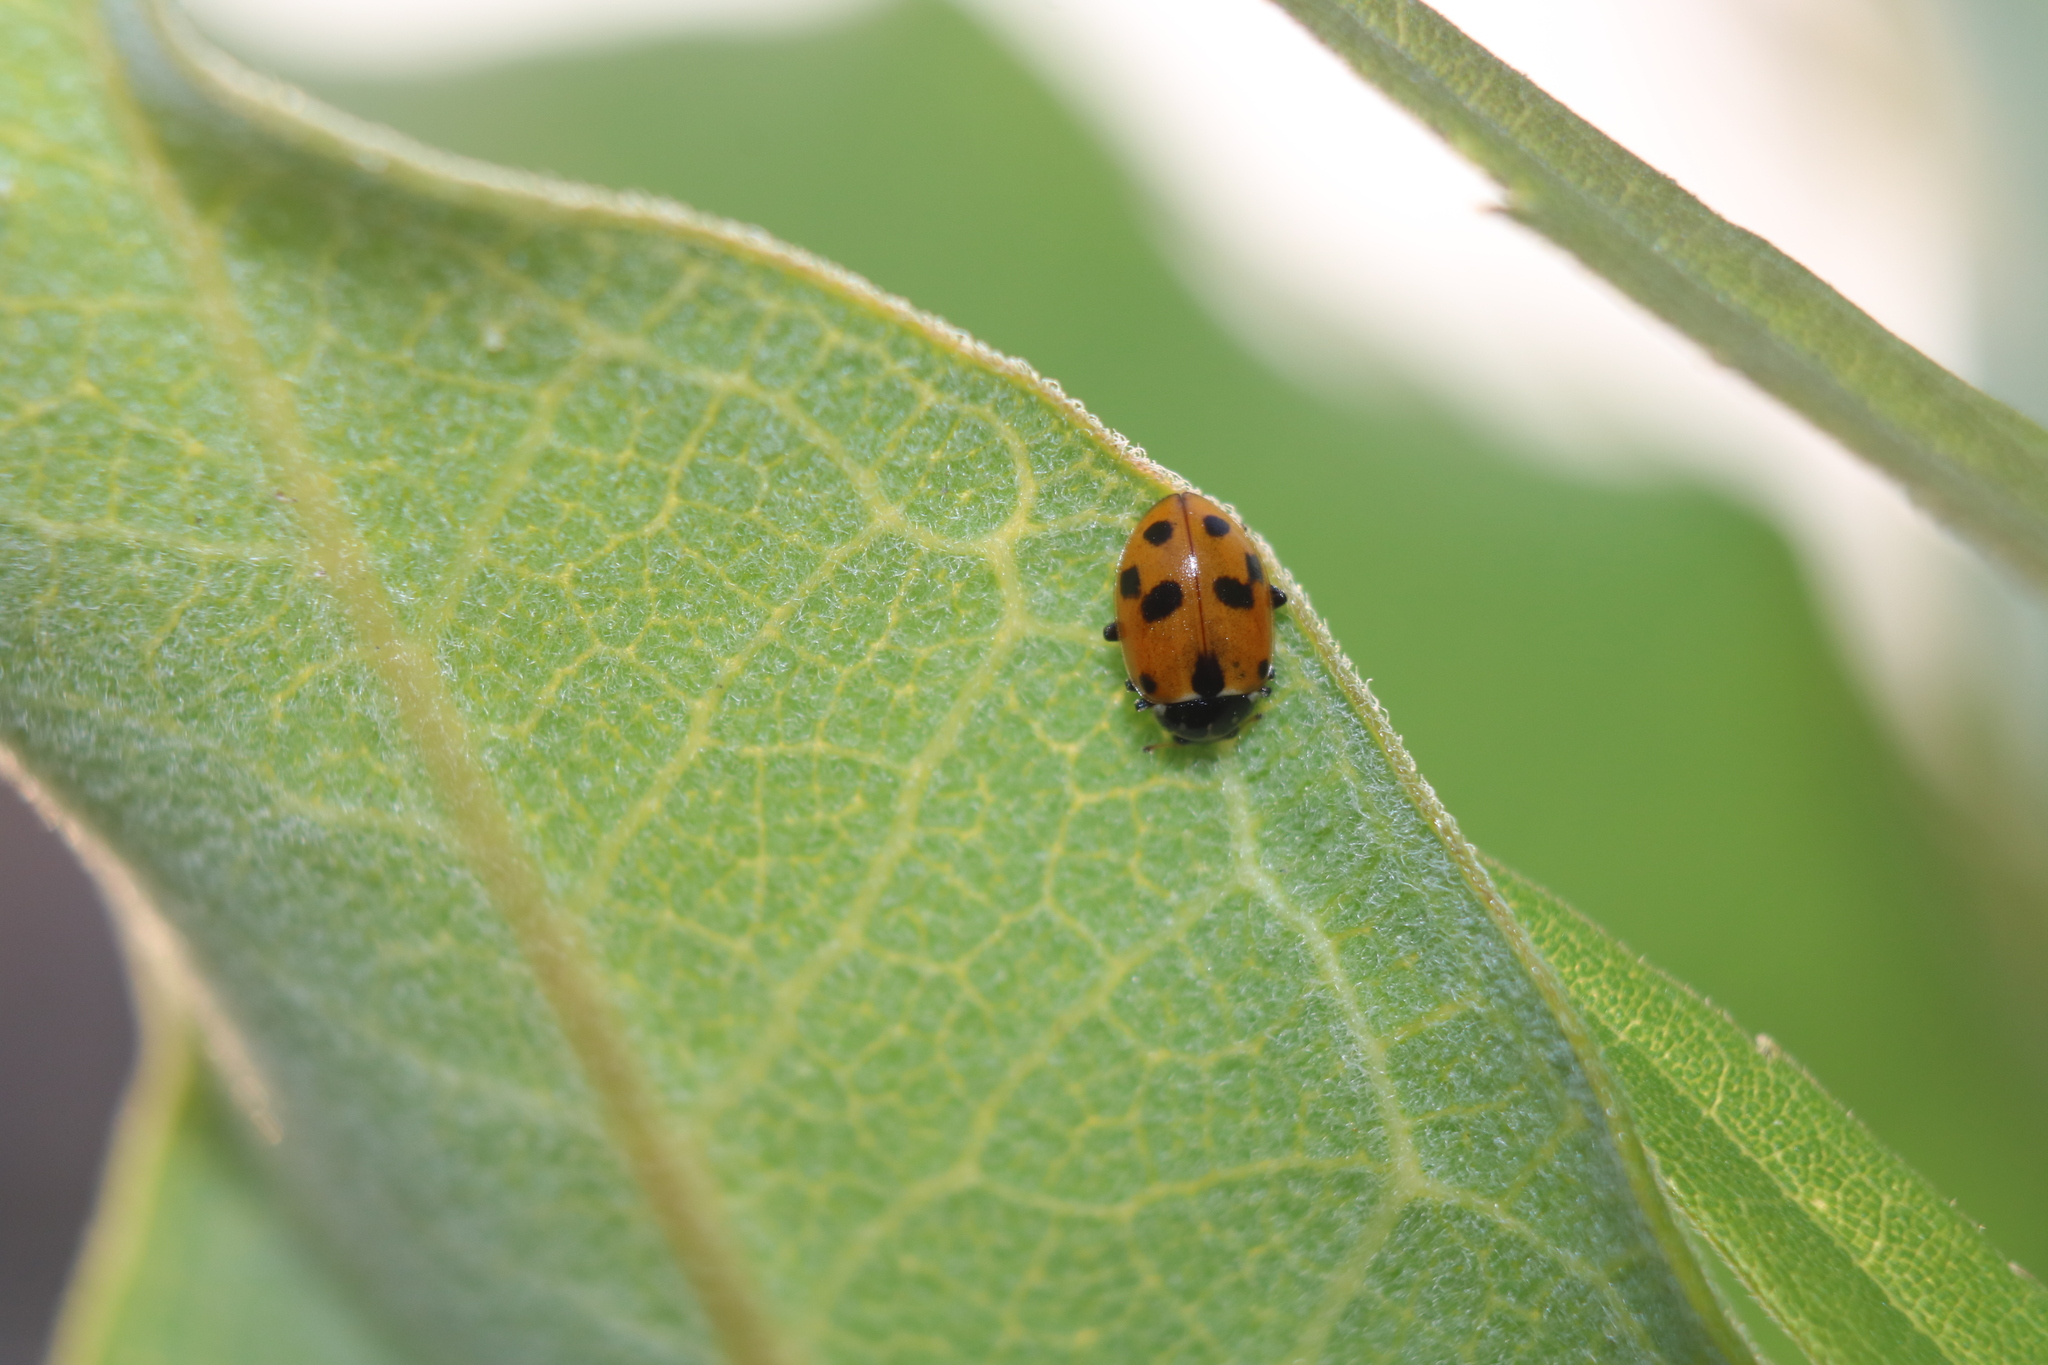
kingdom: Animalia
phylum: Arthropoda
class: Insecta
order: Coleoptera
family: Coccinellidae
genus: Hippodamia
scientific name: Hippodamia variegata
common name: Ladybird beetle
